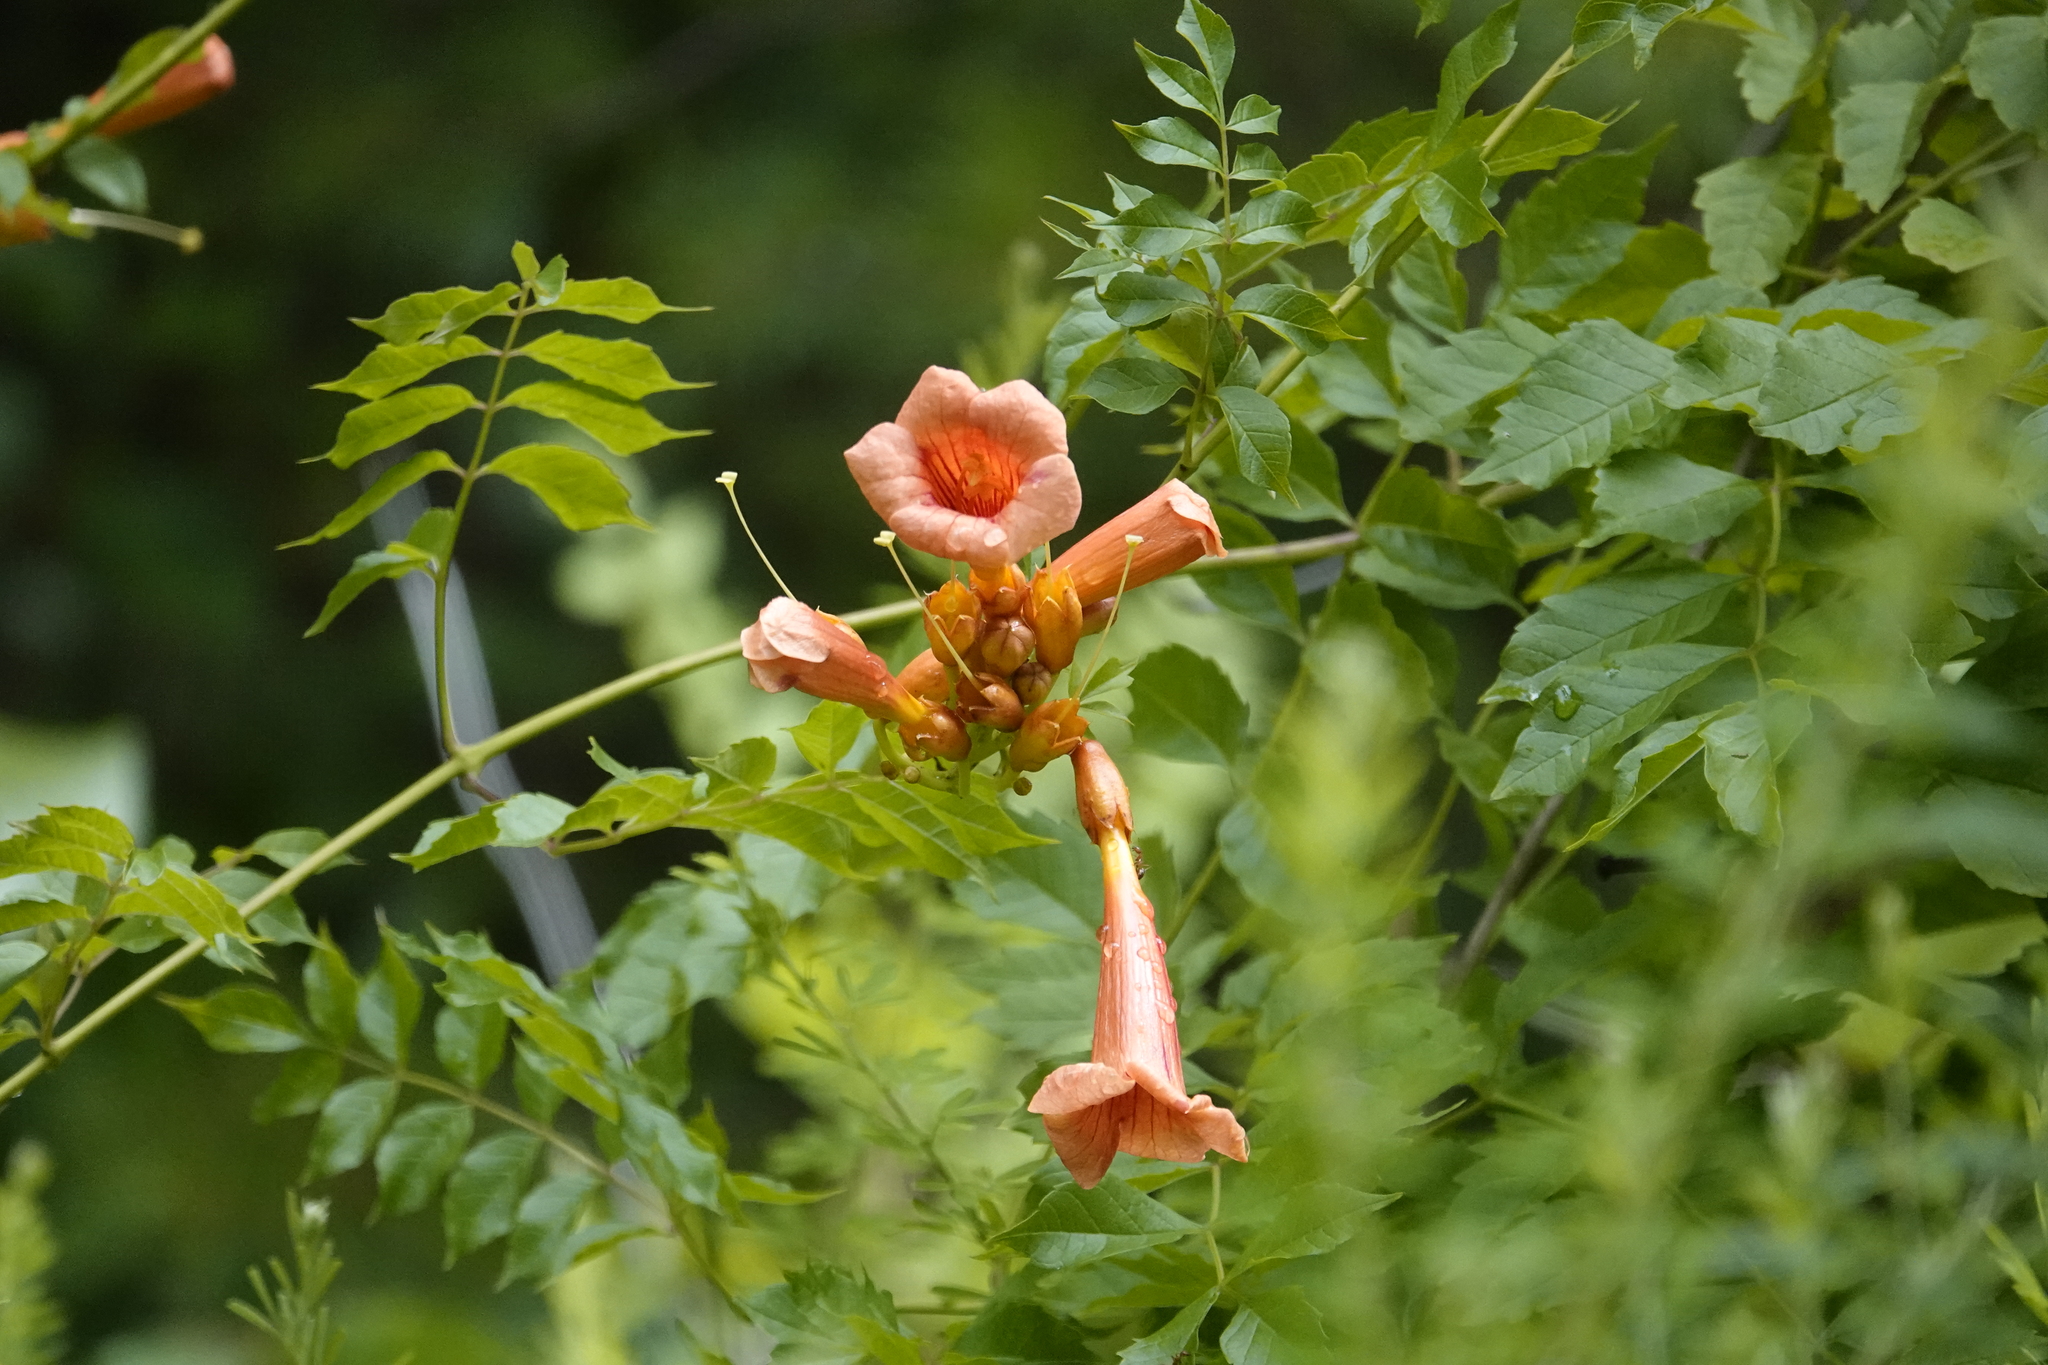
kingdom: Plantae
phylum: Tracheophyta
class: Magnoliopsida
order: Lamiales
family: Bignoniaceae
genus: Campsis
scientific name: Campsis radicans
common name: Trumpet-creeper
